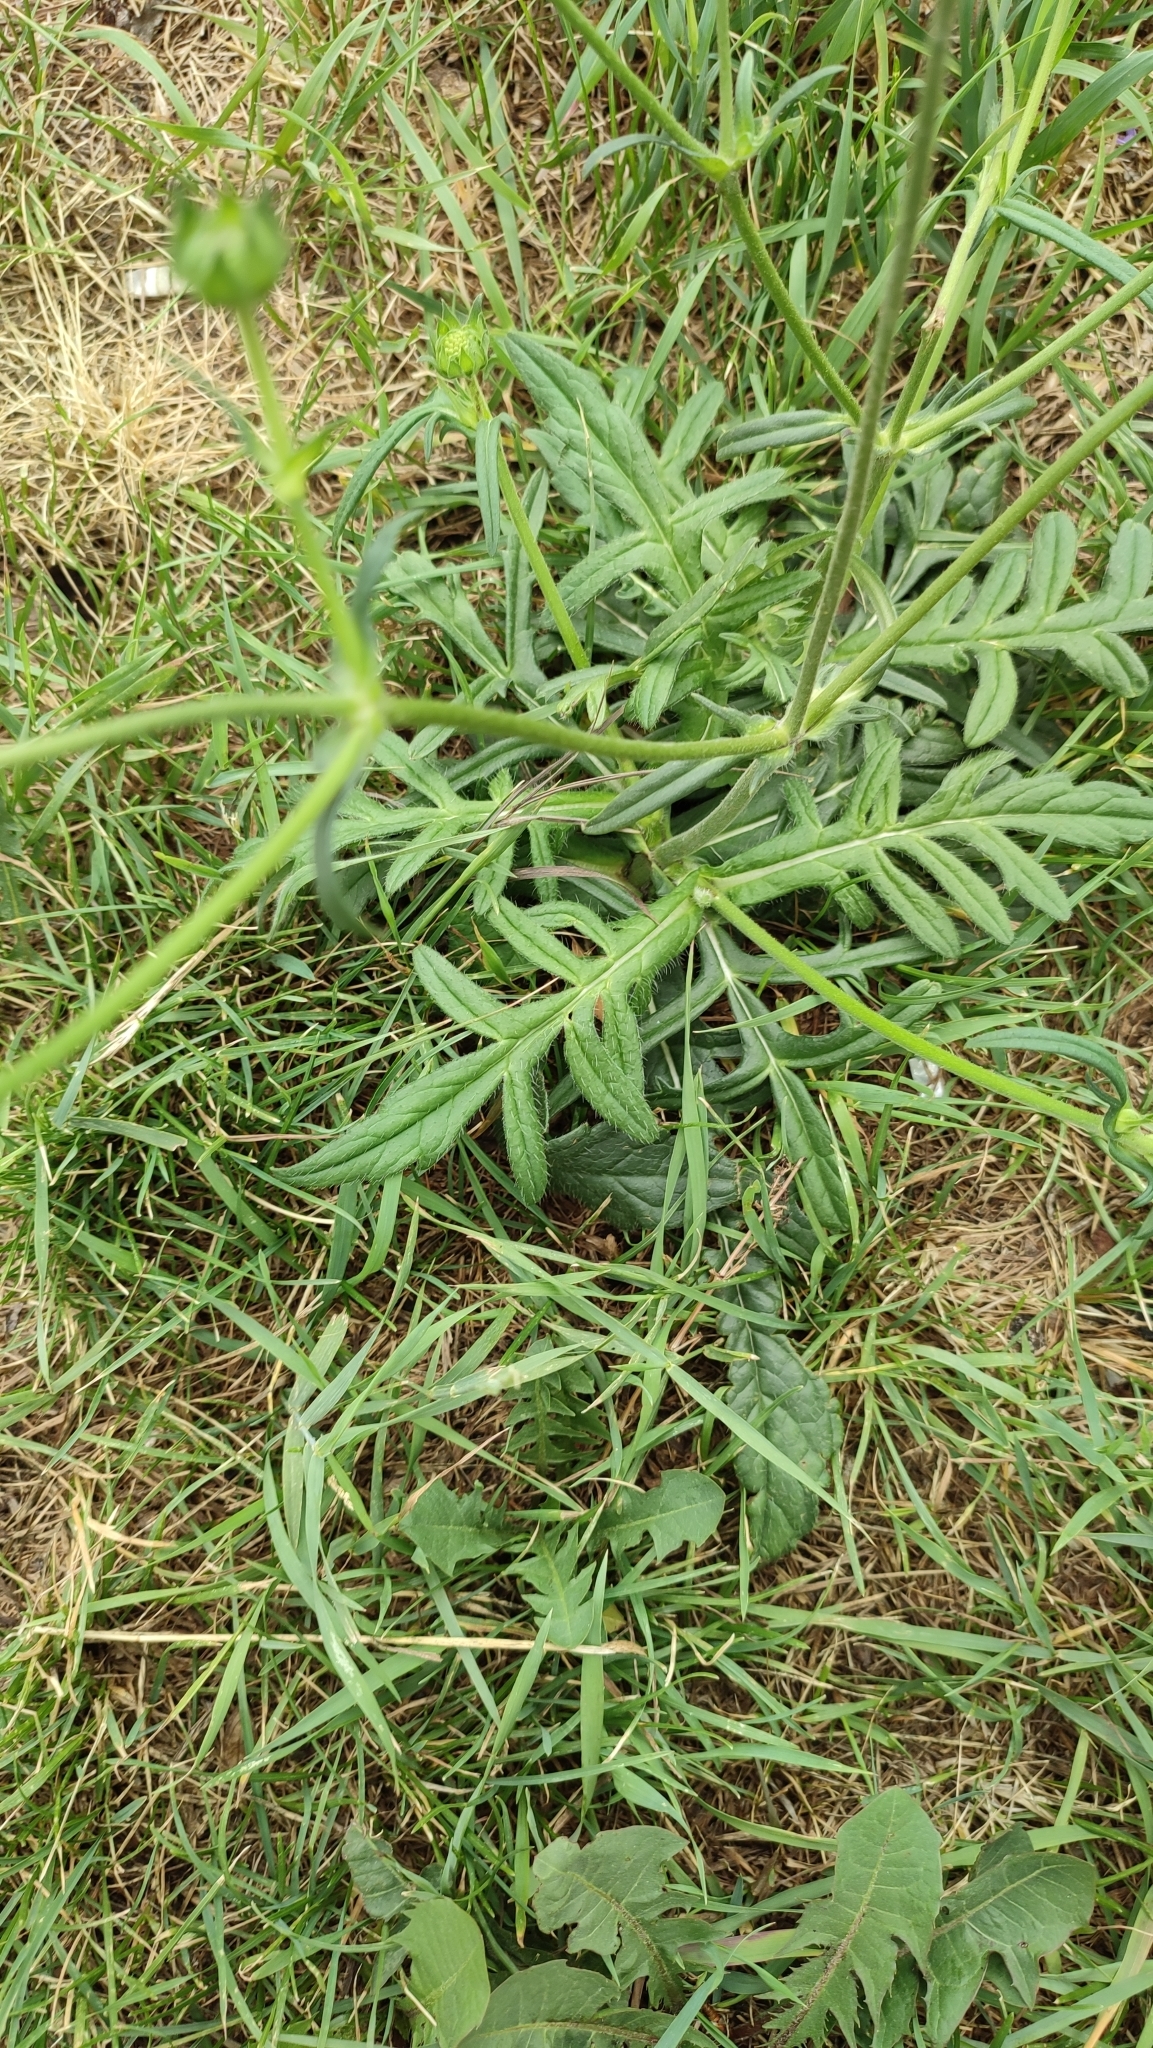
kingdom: Plantae
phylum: Tracheophyta
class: Magnoliopsida
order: Dipsacales
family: Caprifoliaceae
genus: Knautia
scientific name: Knautia arvensis
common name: Field scabiosa
